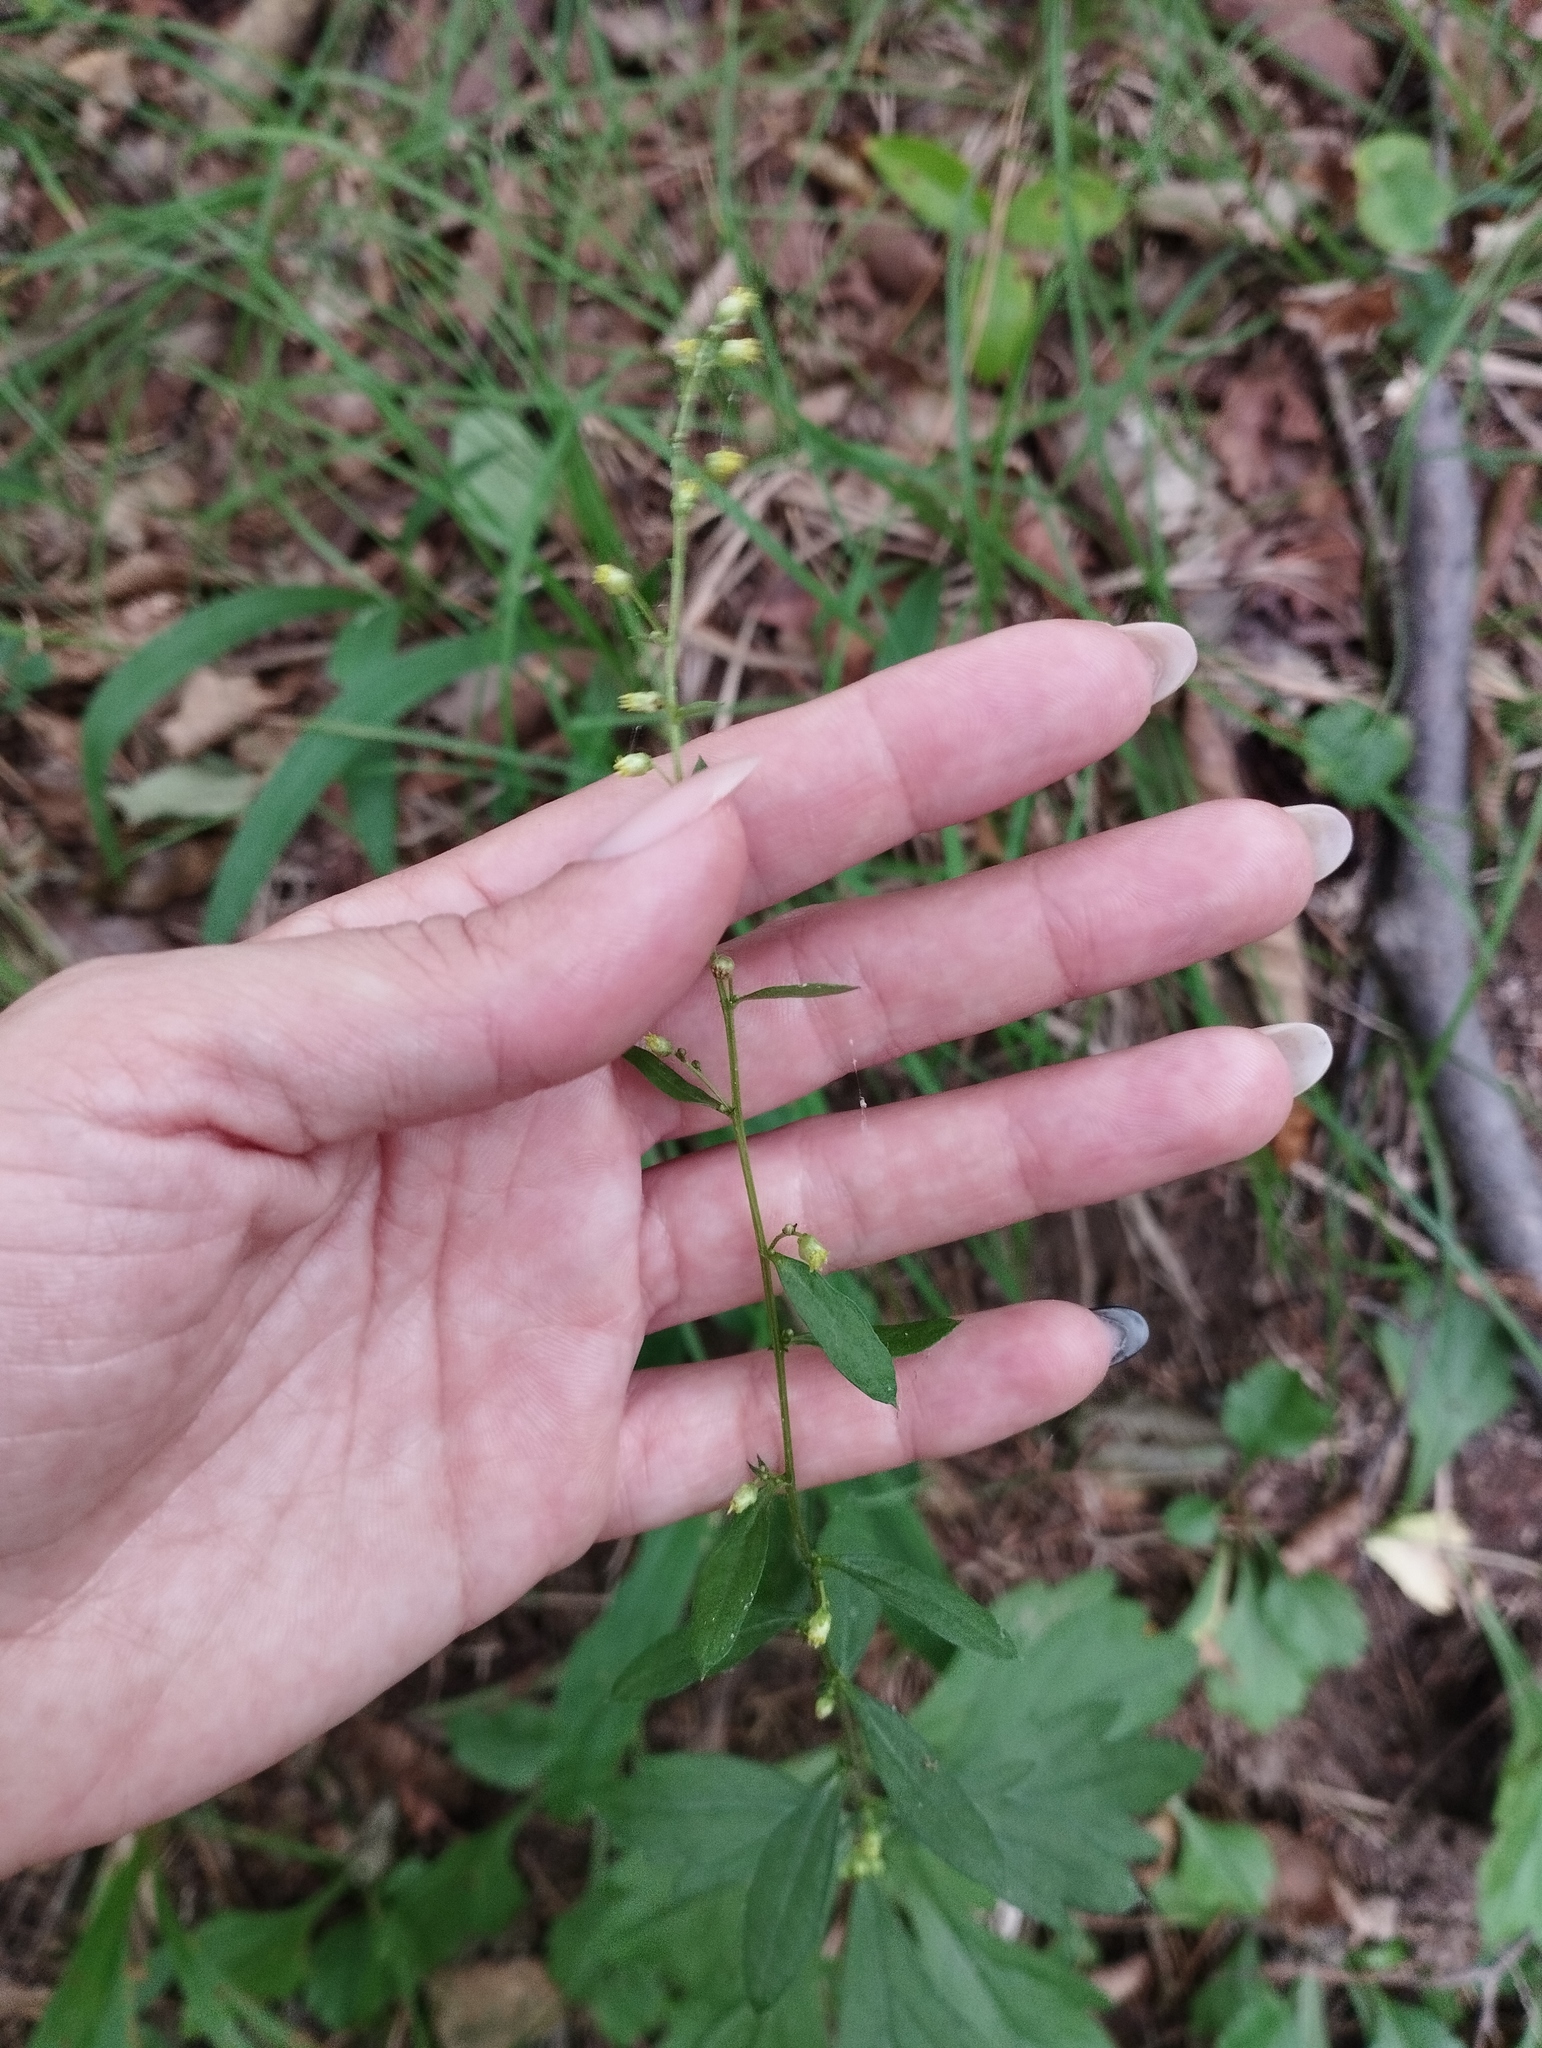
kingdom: Plantae
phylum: Tracheophyta
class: Magnoliopsida
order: Asterales
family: Asteraceae
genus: Artemisia
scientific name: Artemisia stolonifera
